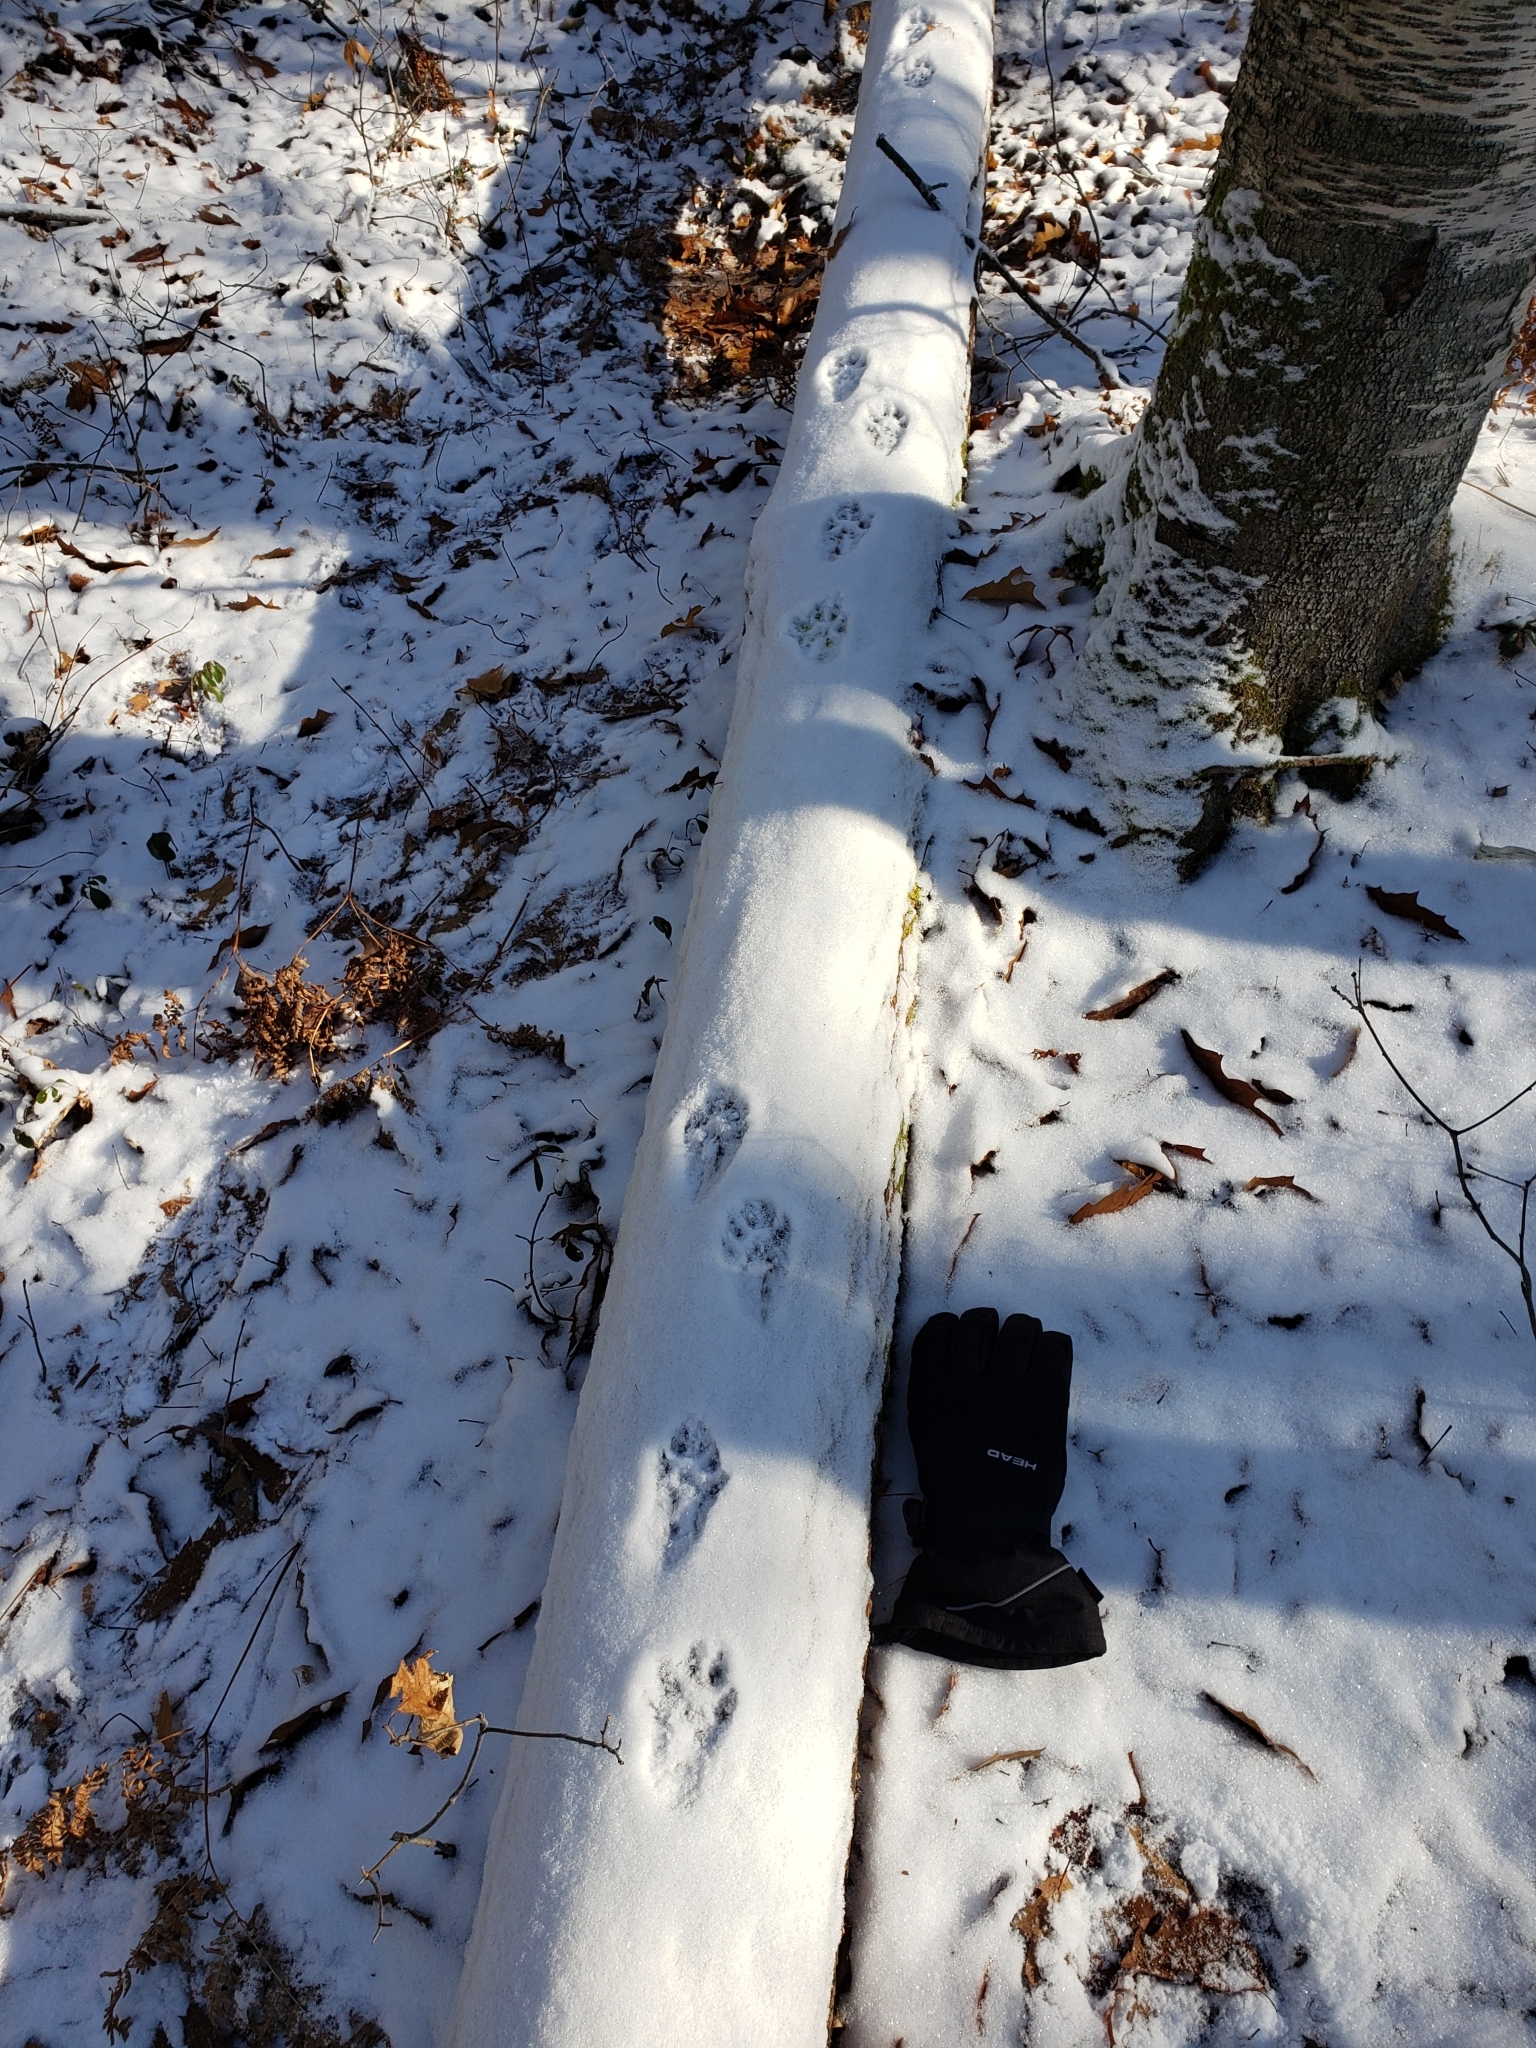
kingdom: Animalia
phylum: Chordata
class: Mammalia
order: Carnivora
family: Mustelidae
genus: Pekania
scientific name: Pekania pennanti
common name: Fisher
